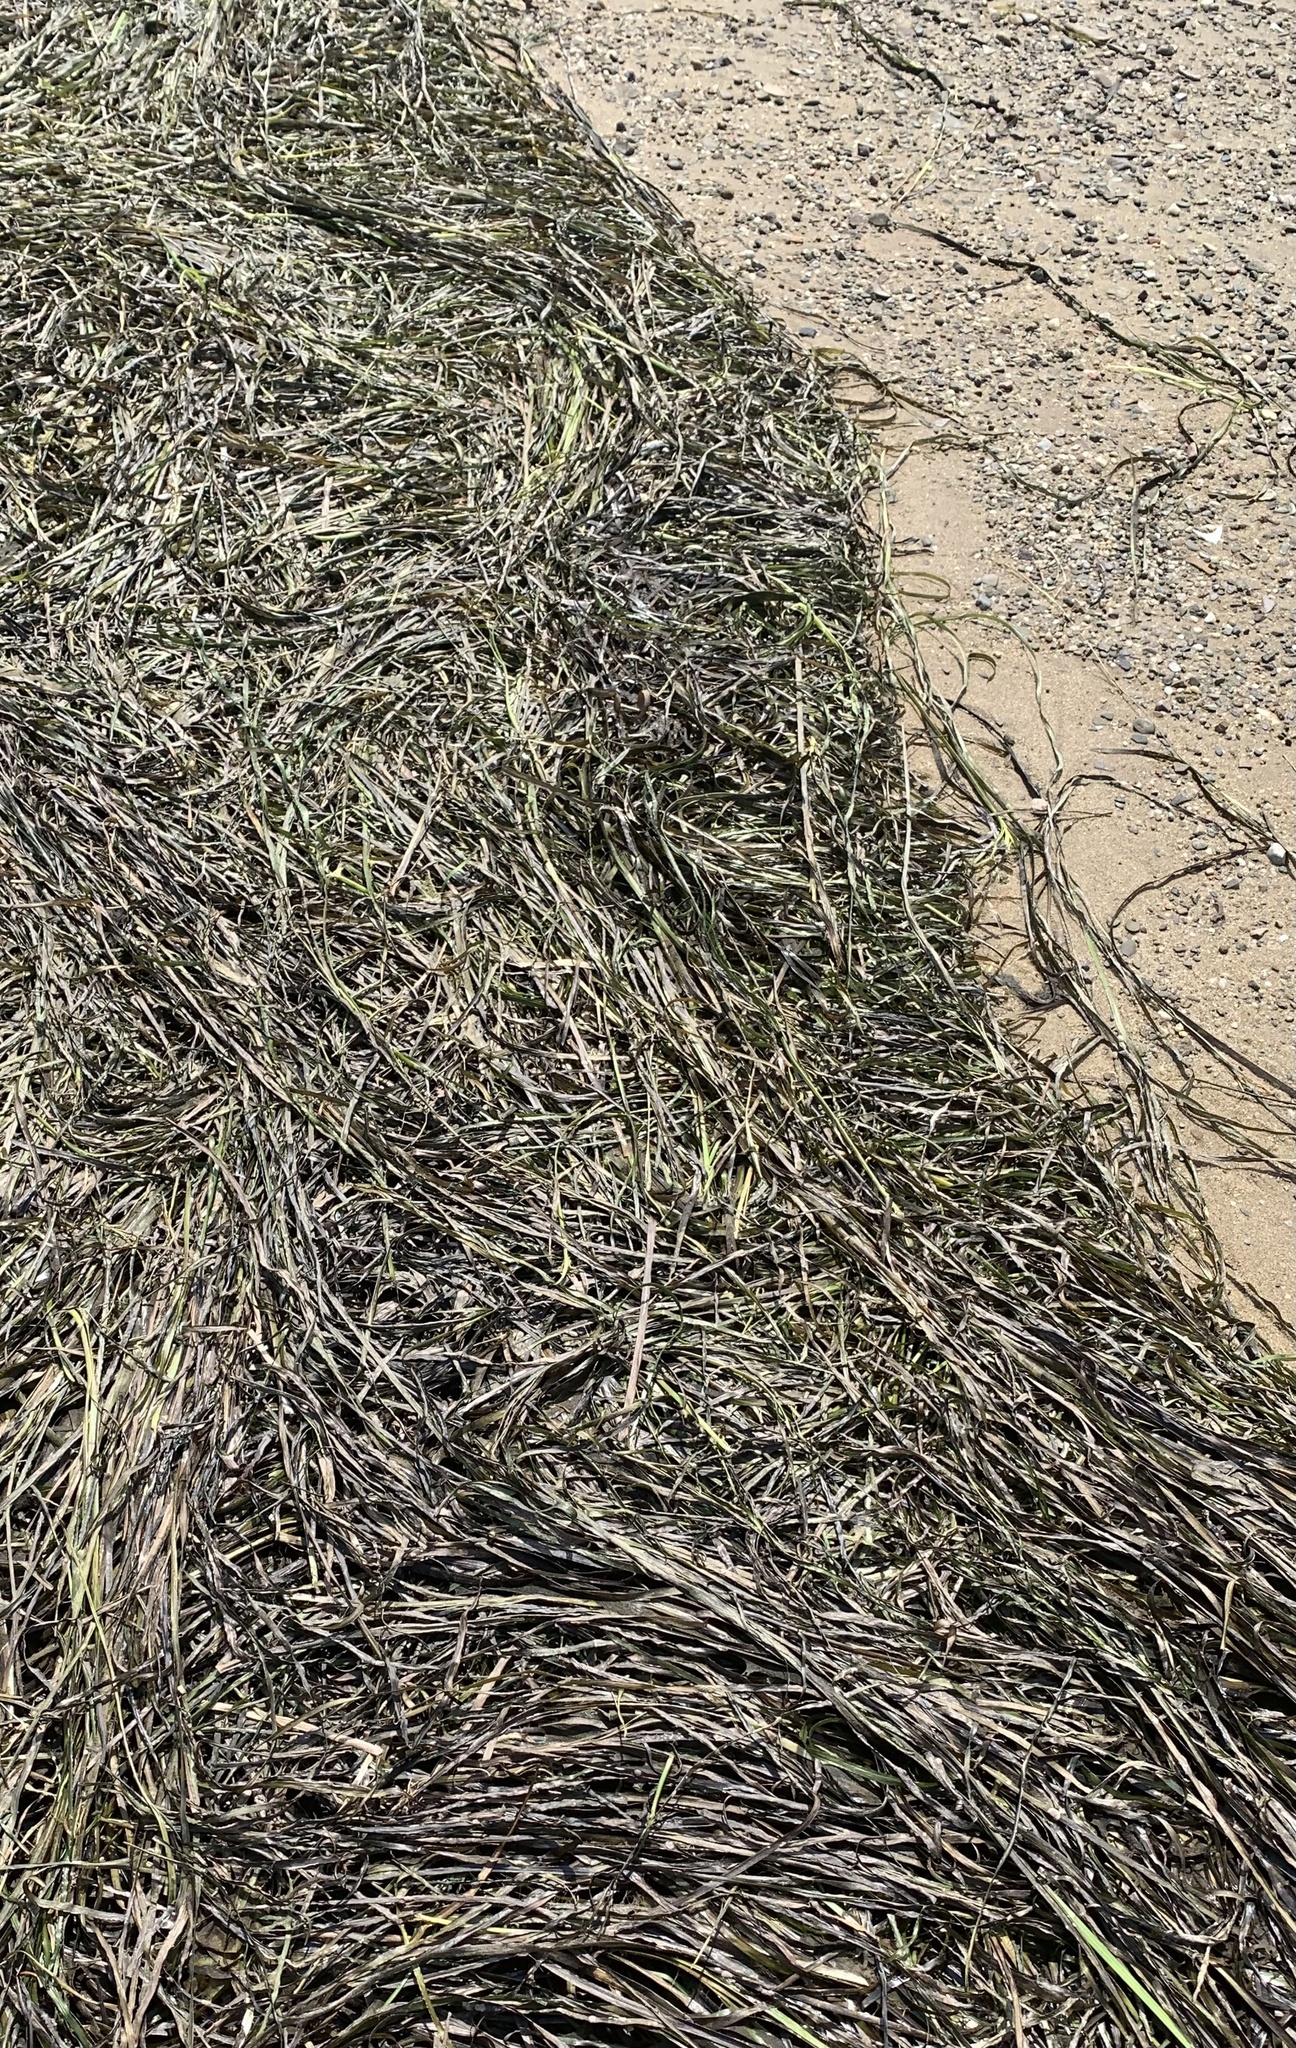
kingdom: Plantae
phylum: Tracheophyta
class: Liliopsida
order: Alismatales
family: Zosteraceae
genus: Zostera
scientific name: Zostera marina
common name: Eelgrass
